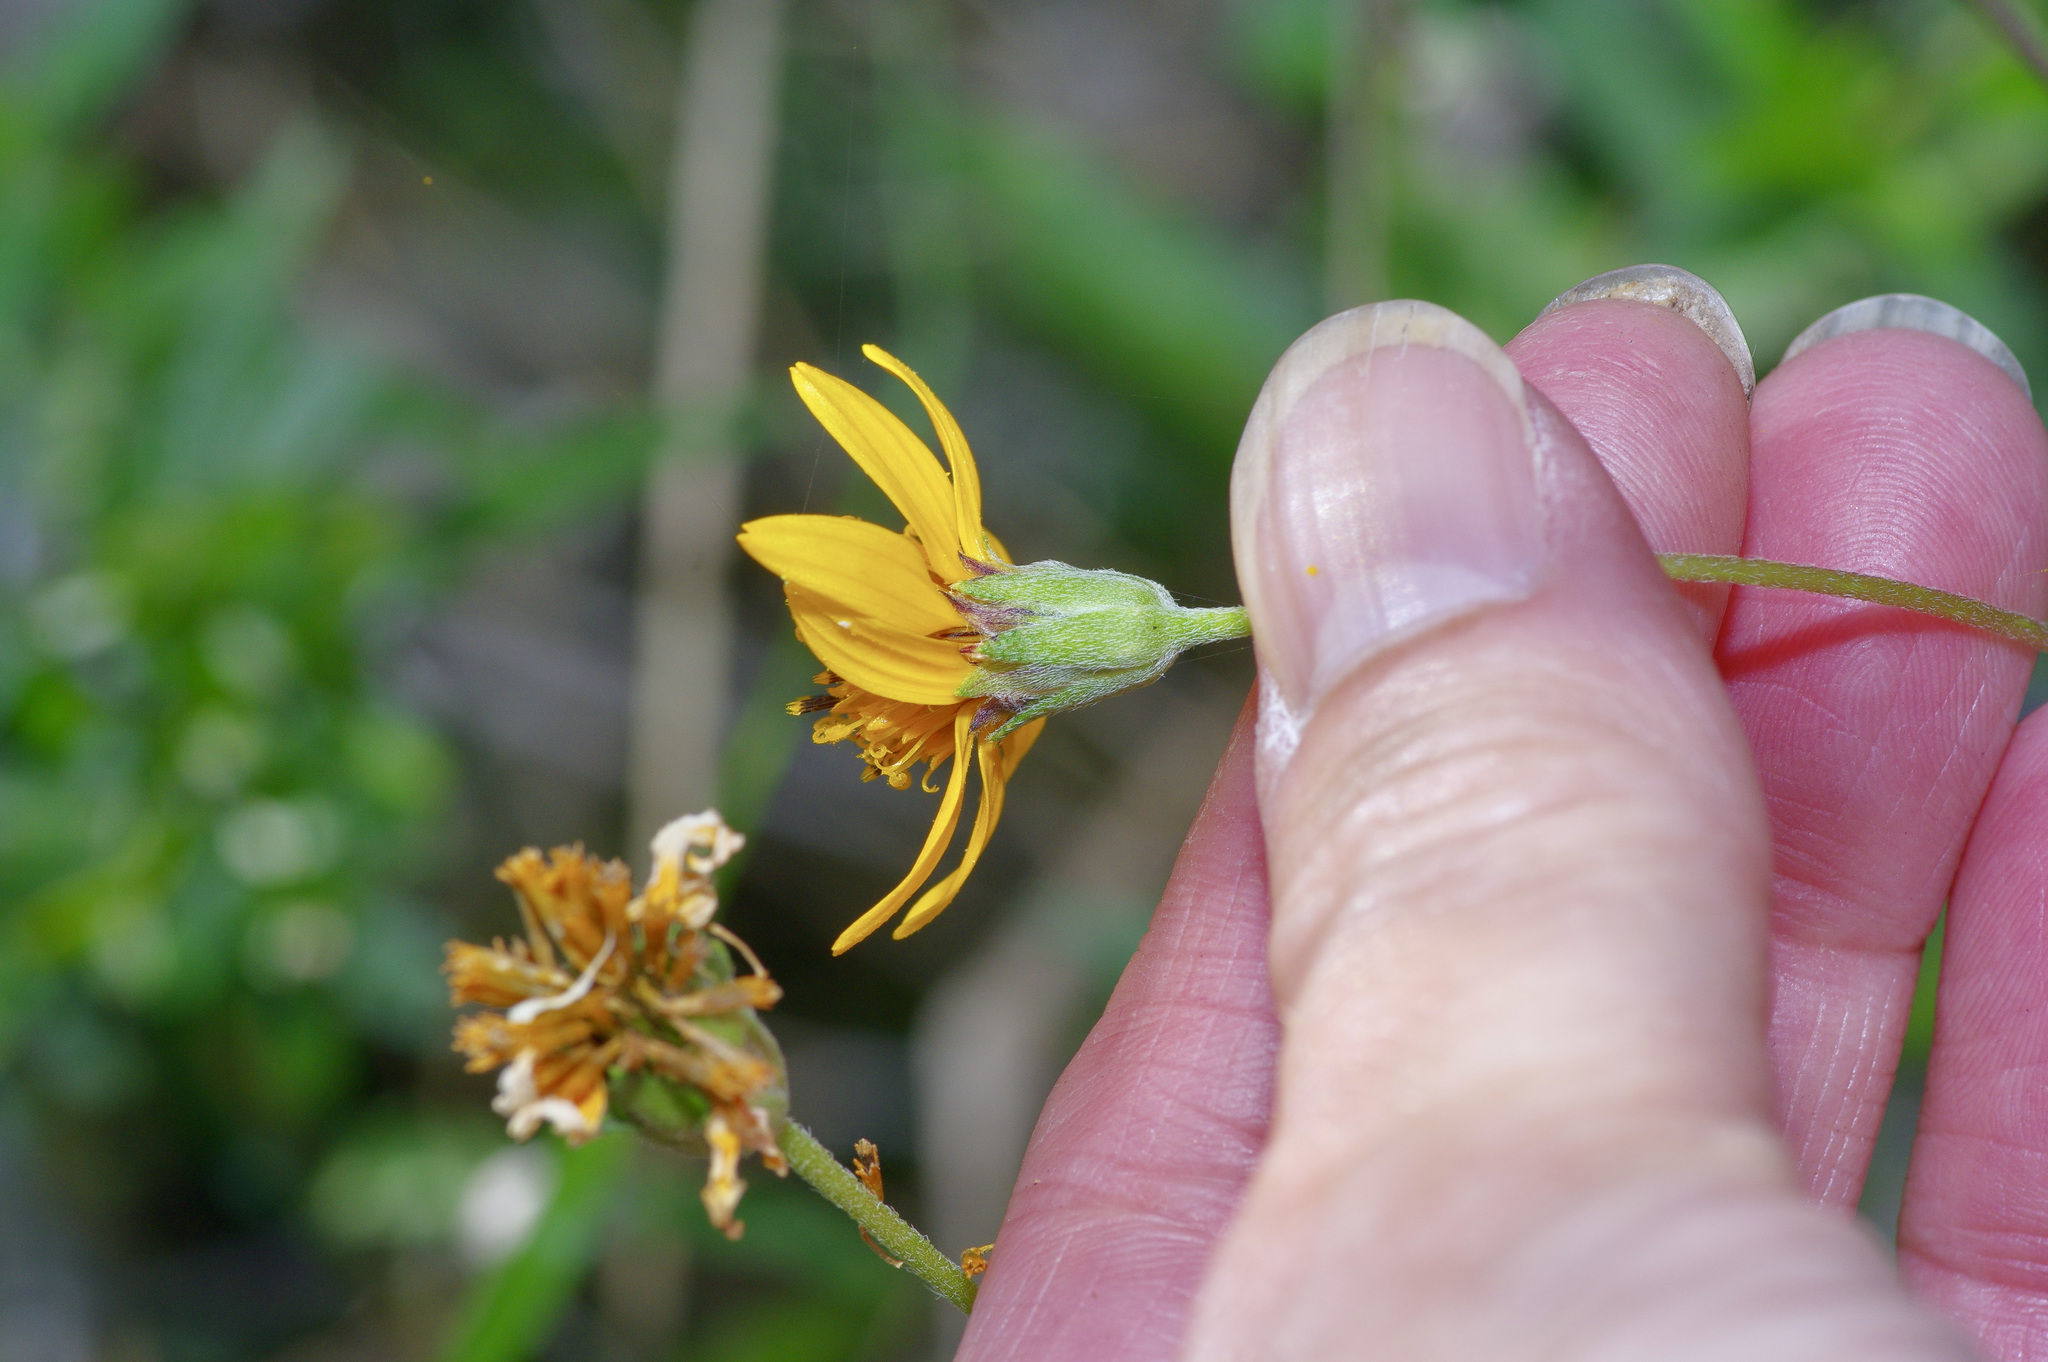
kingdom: Plantae
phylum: Tracheophyta
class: Magnoliopsida
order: Asterales
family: Asteraceae
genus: Wedelia
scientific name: Wedelia acapulcensis
